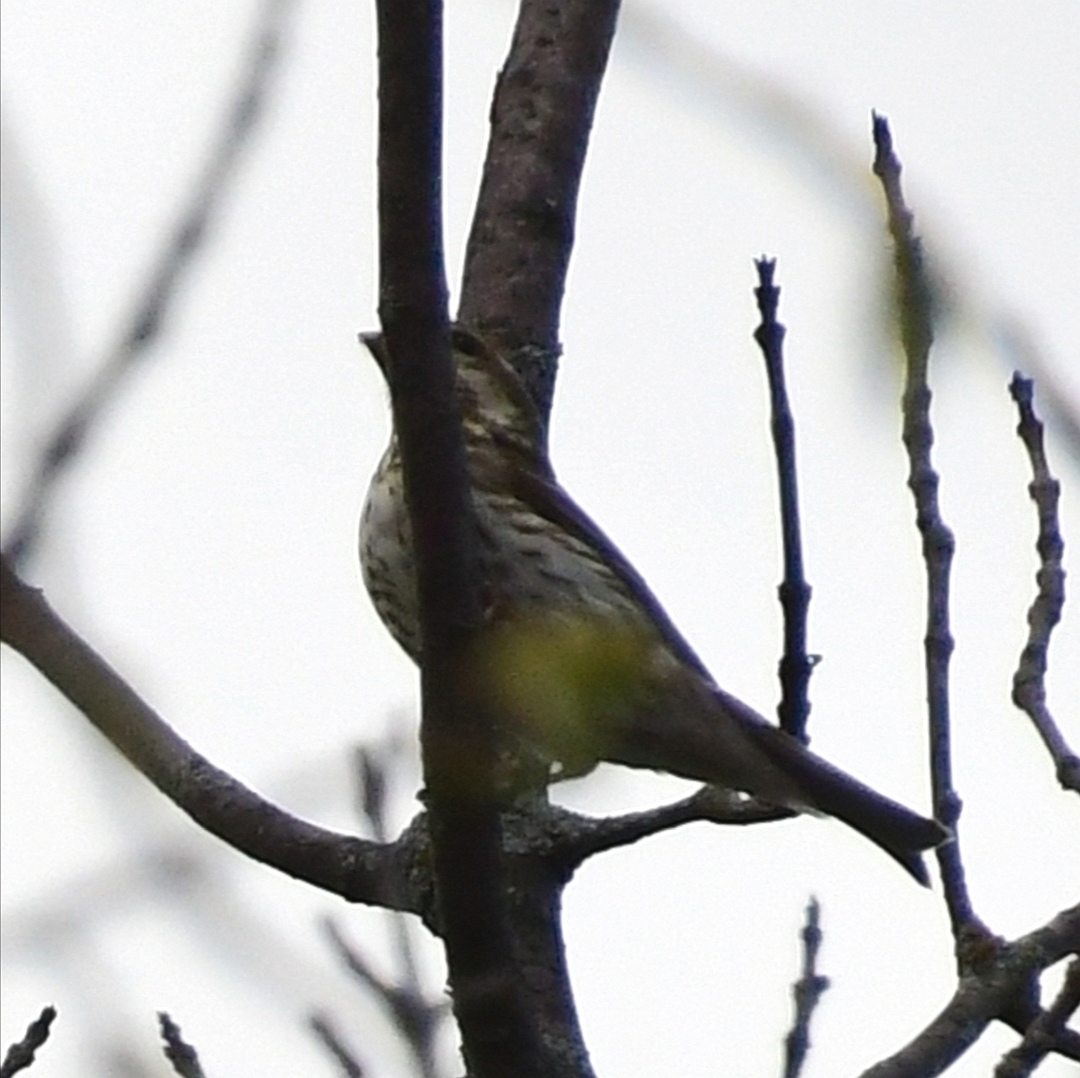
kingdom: Animalia
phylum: Chordata
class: Aves
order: Passeriformes
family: Fringillidae
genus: Haemorhous
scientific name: Haemorhous purpureus
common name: Purple finch
